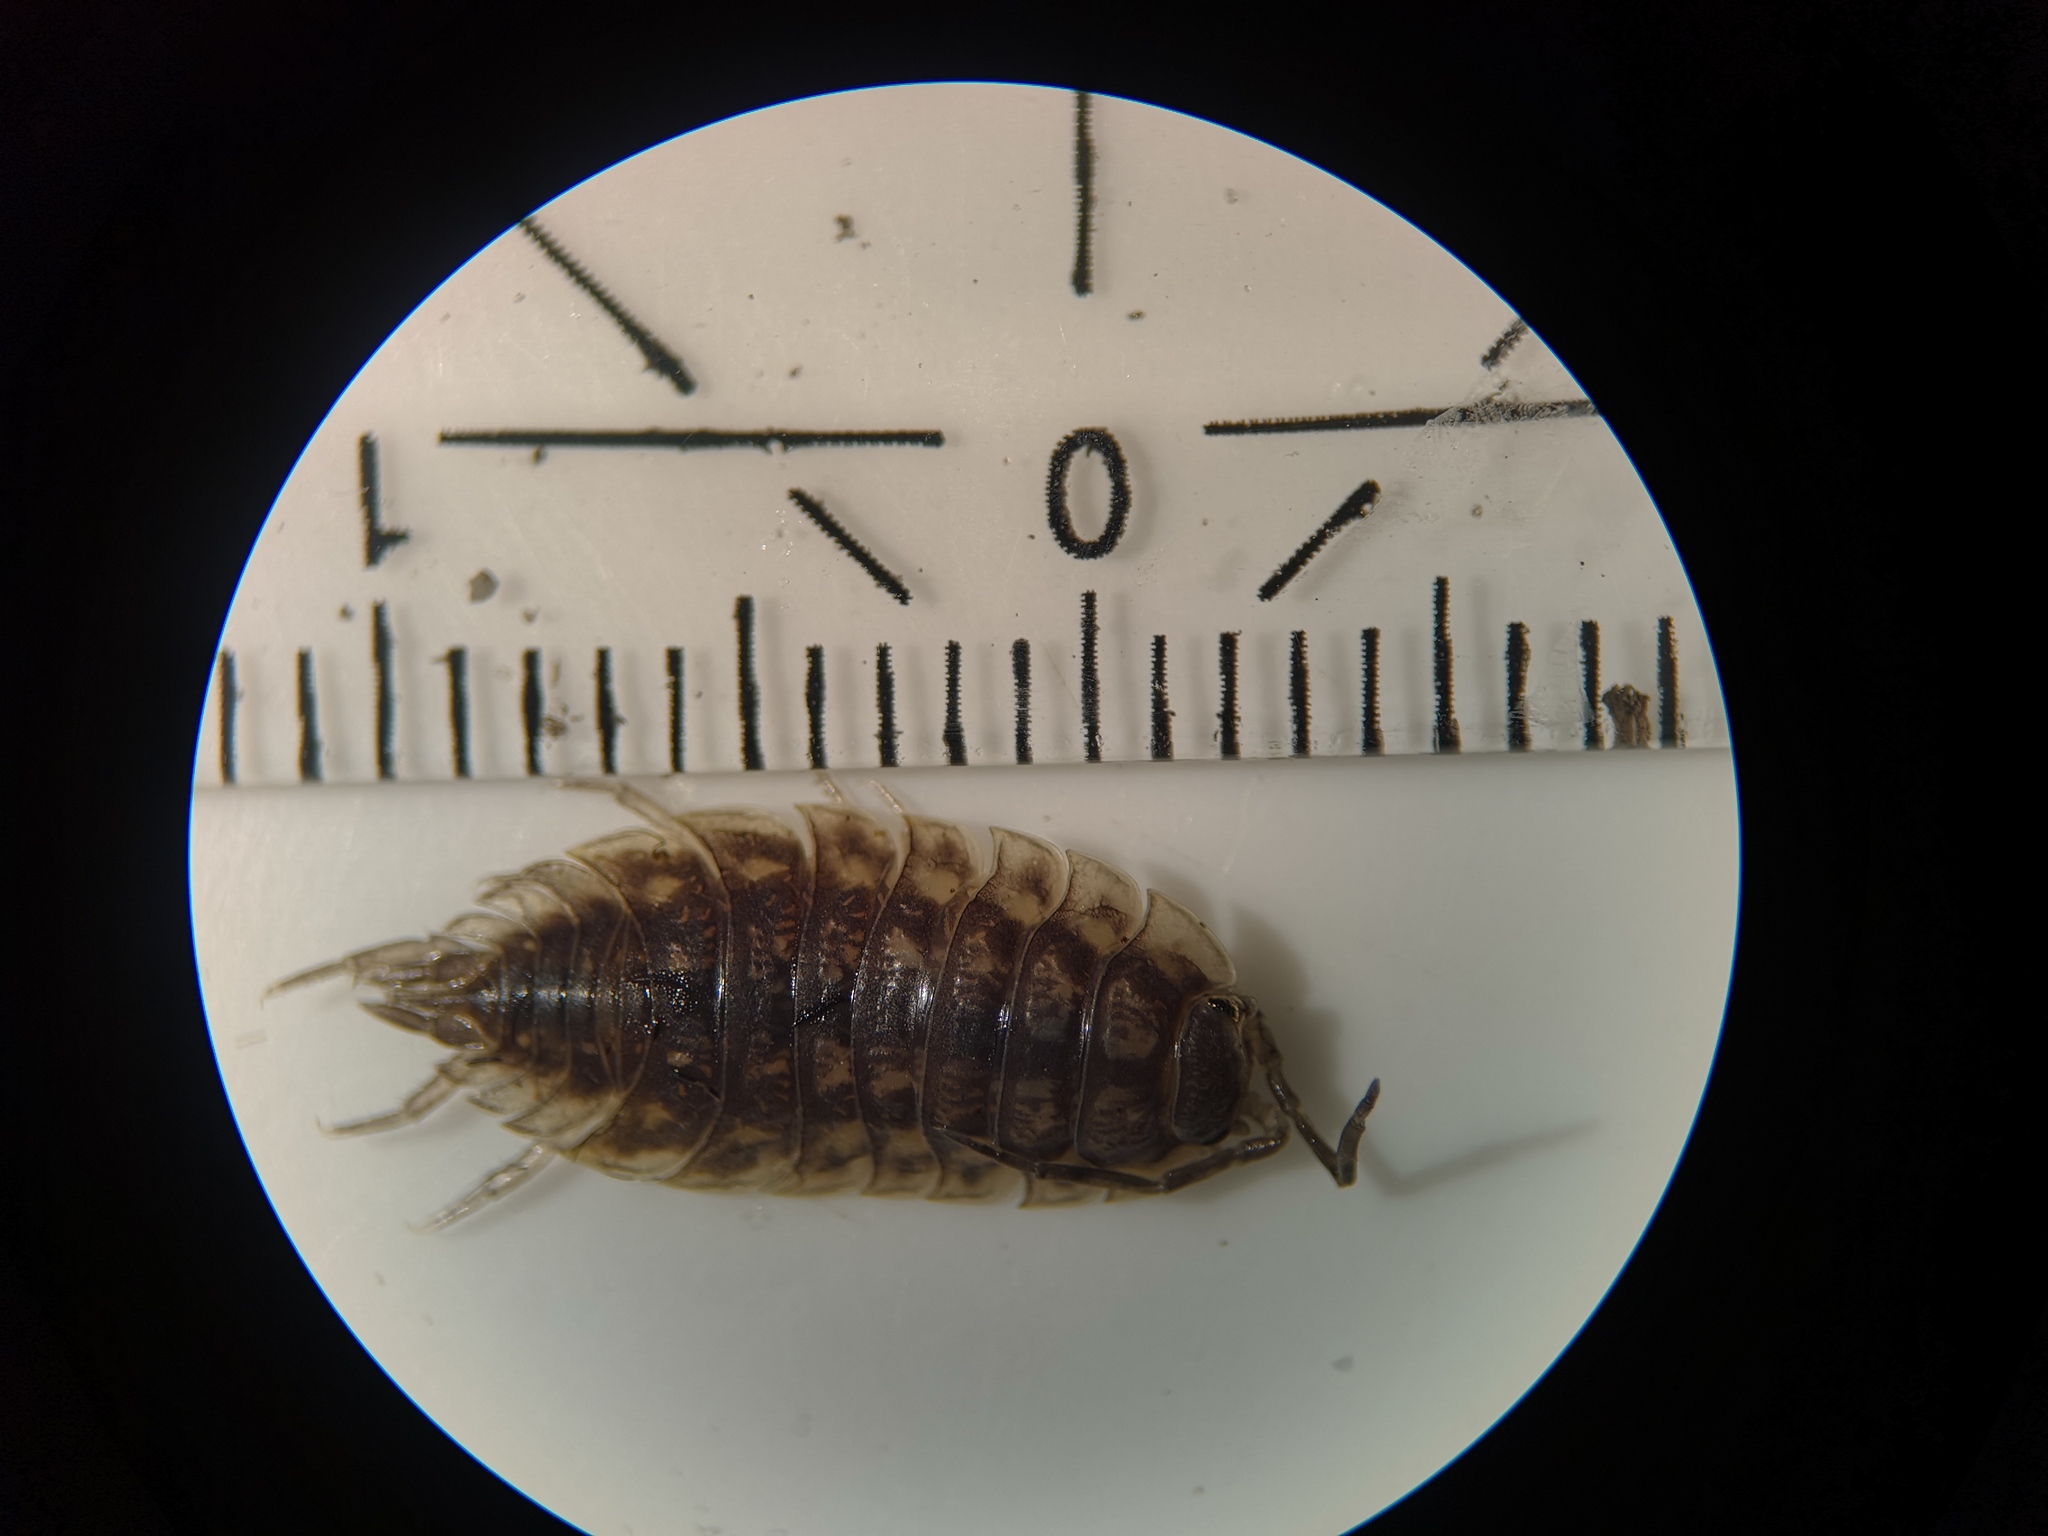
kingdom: Animalia
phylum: Arthropoda
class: Malacostraca
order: Isopoda
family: Oniscidae
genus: Oniscus
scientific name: Oniscus asellus
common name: Common shiny woodlouse
